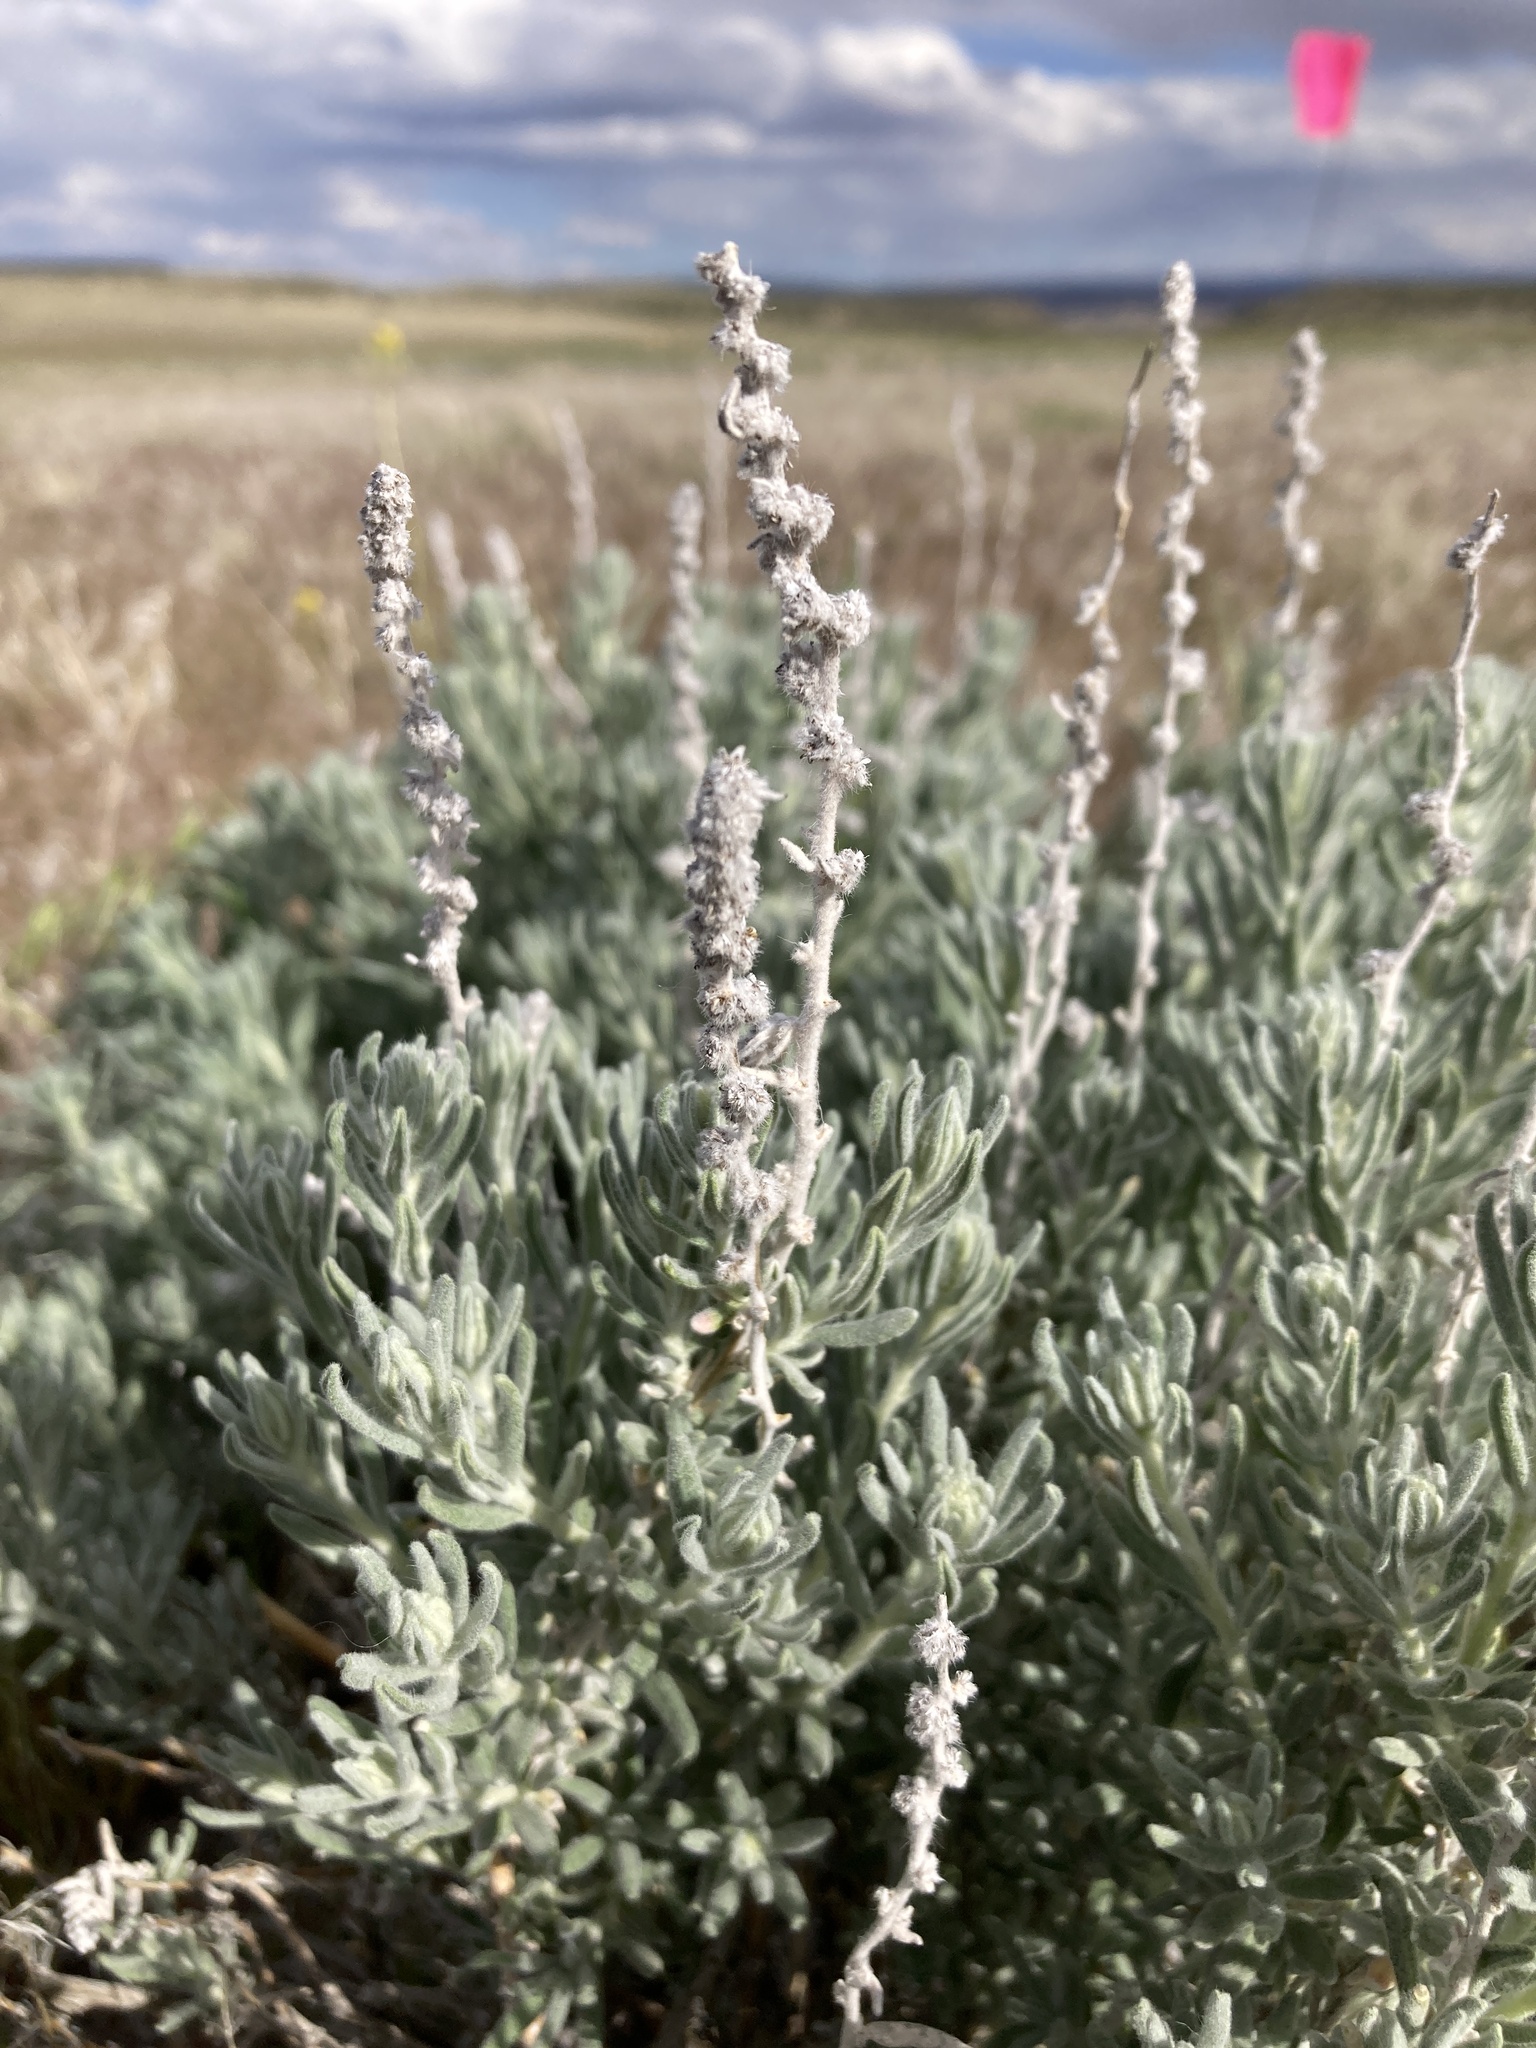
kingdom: Plantae
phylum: Tracheophyta
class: Magnoliopsida
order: Caryophyllales
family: Amaranthaceae
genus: Krascheninnikovia
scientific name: Krascheninnikovia lanata
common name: Winterfat
